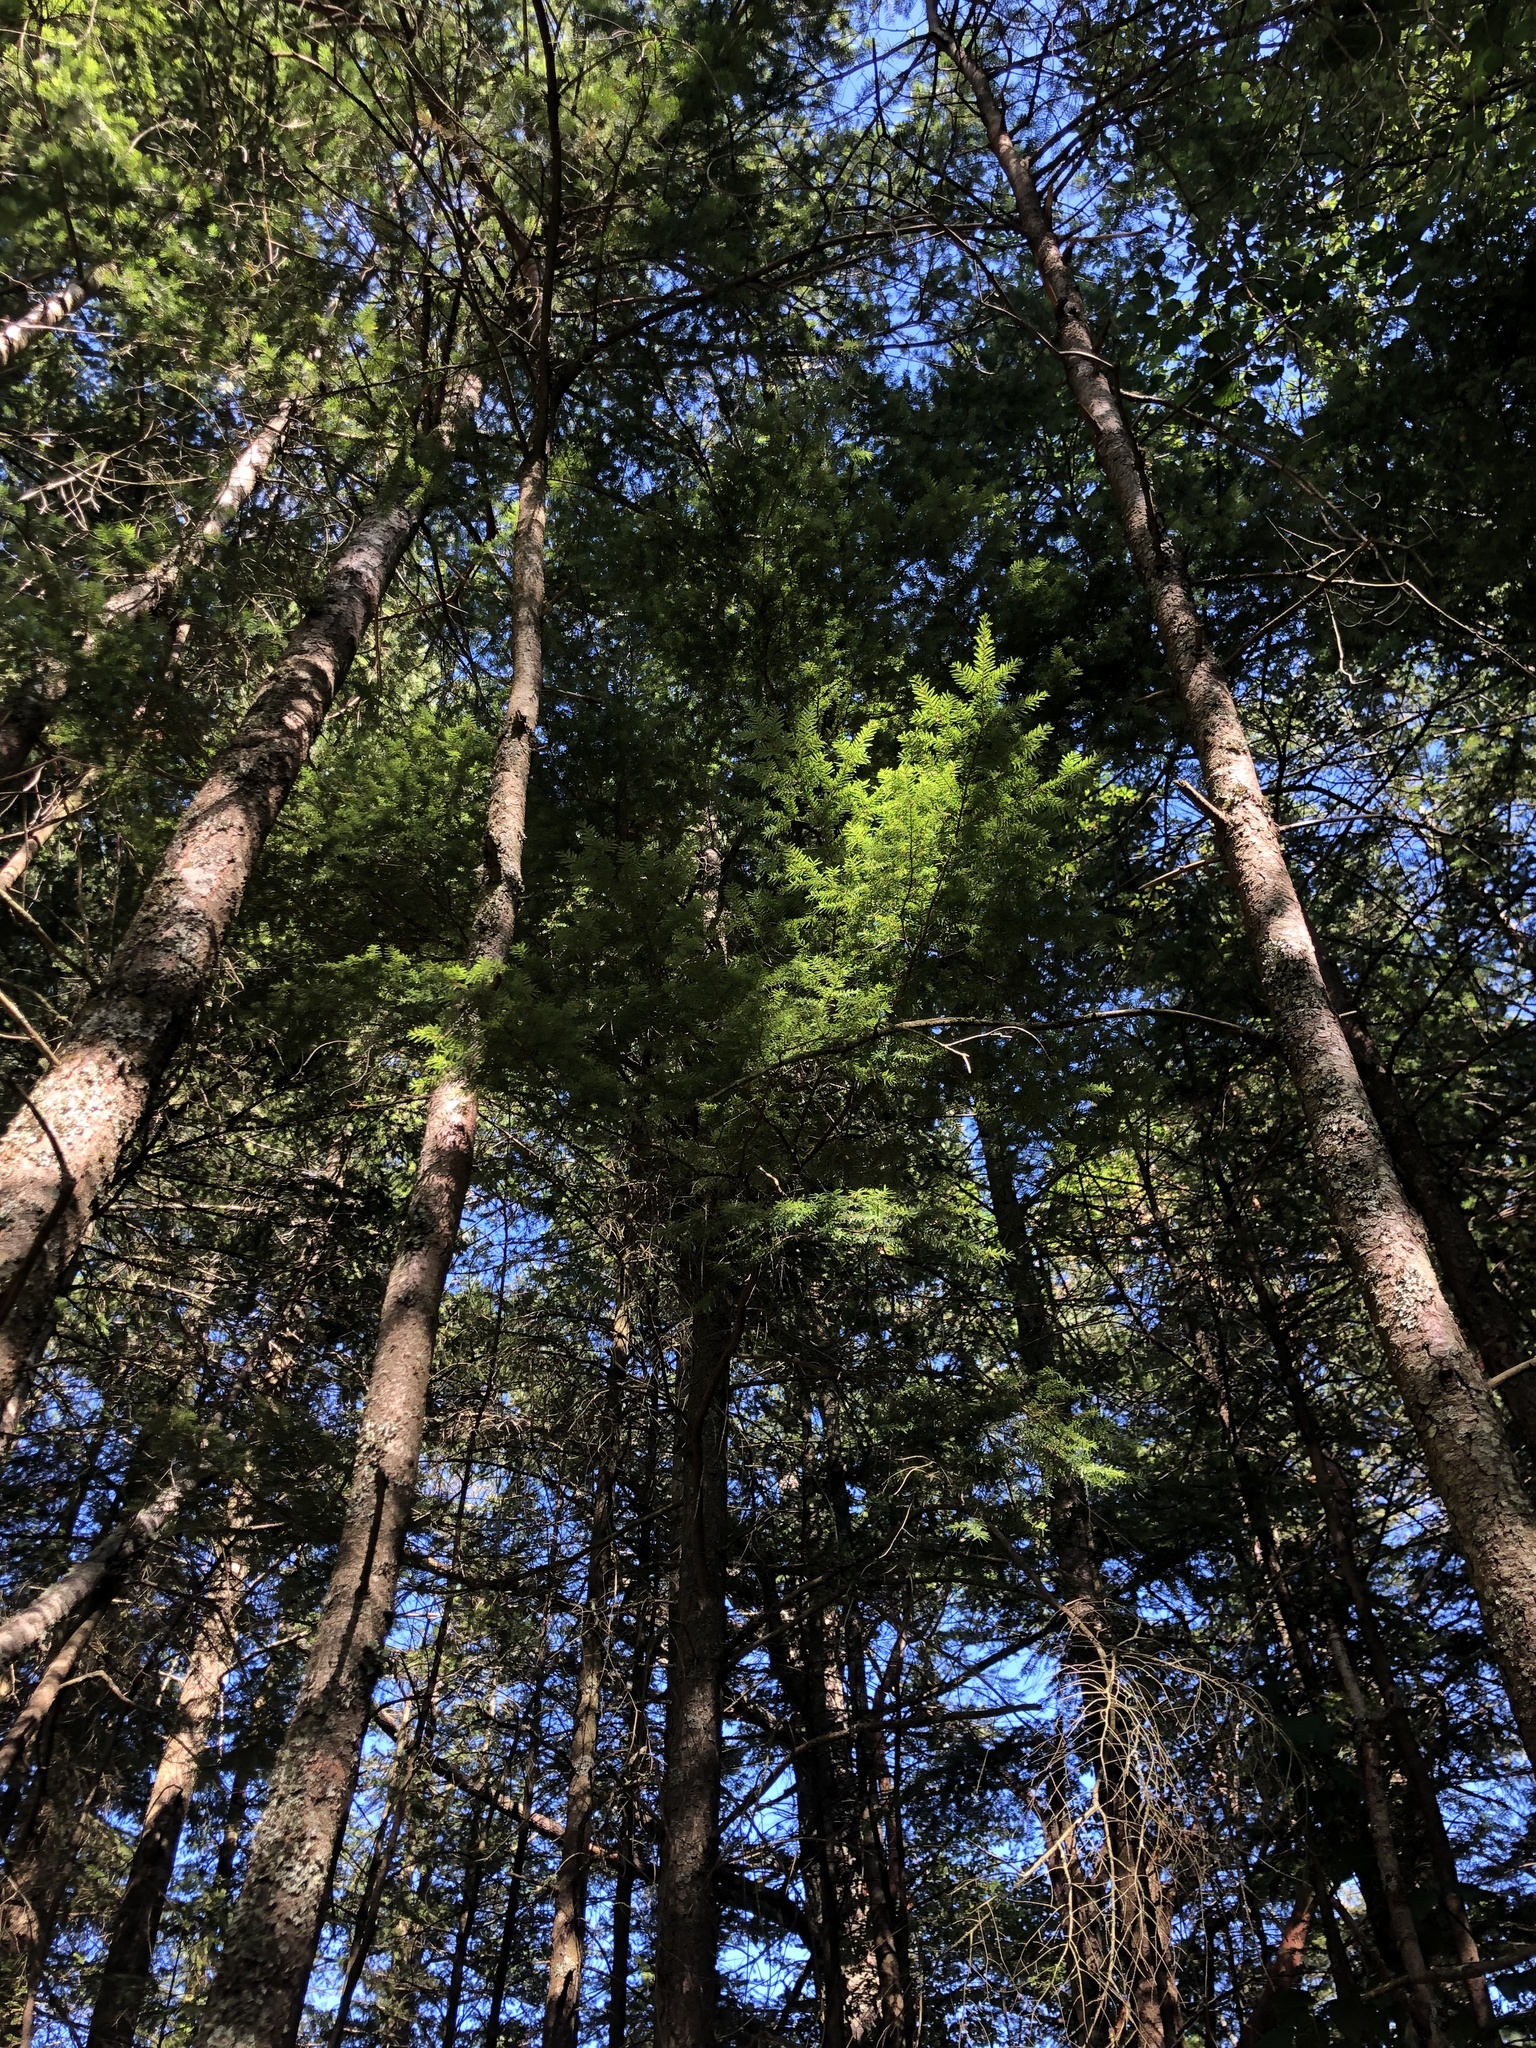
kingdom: Plantae
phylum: Tracheophyta
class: Pinopsida
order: Pinales
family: Pinaceae
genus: Tsuga
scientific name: Tsuga heterophylla
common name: Western hemlock
